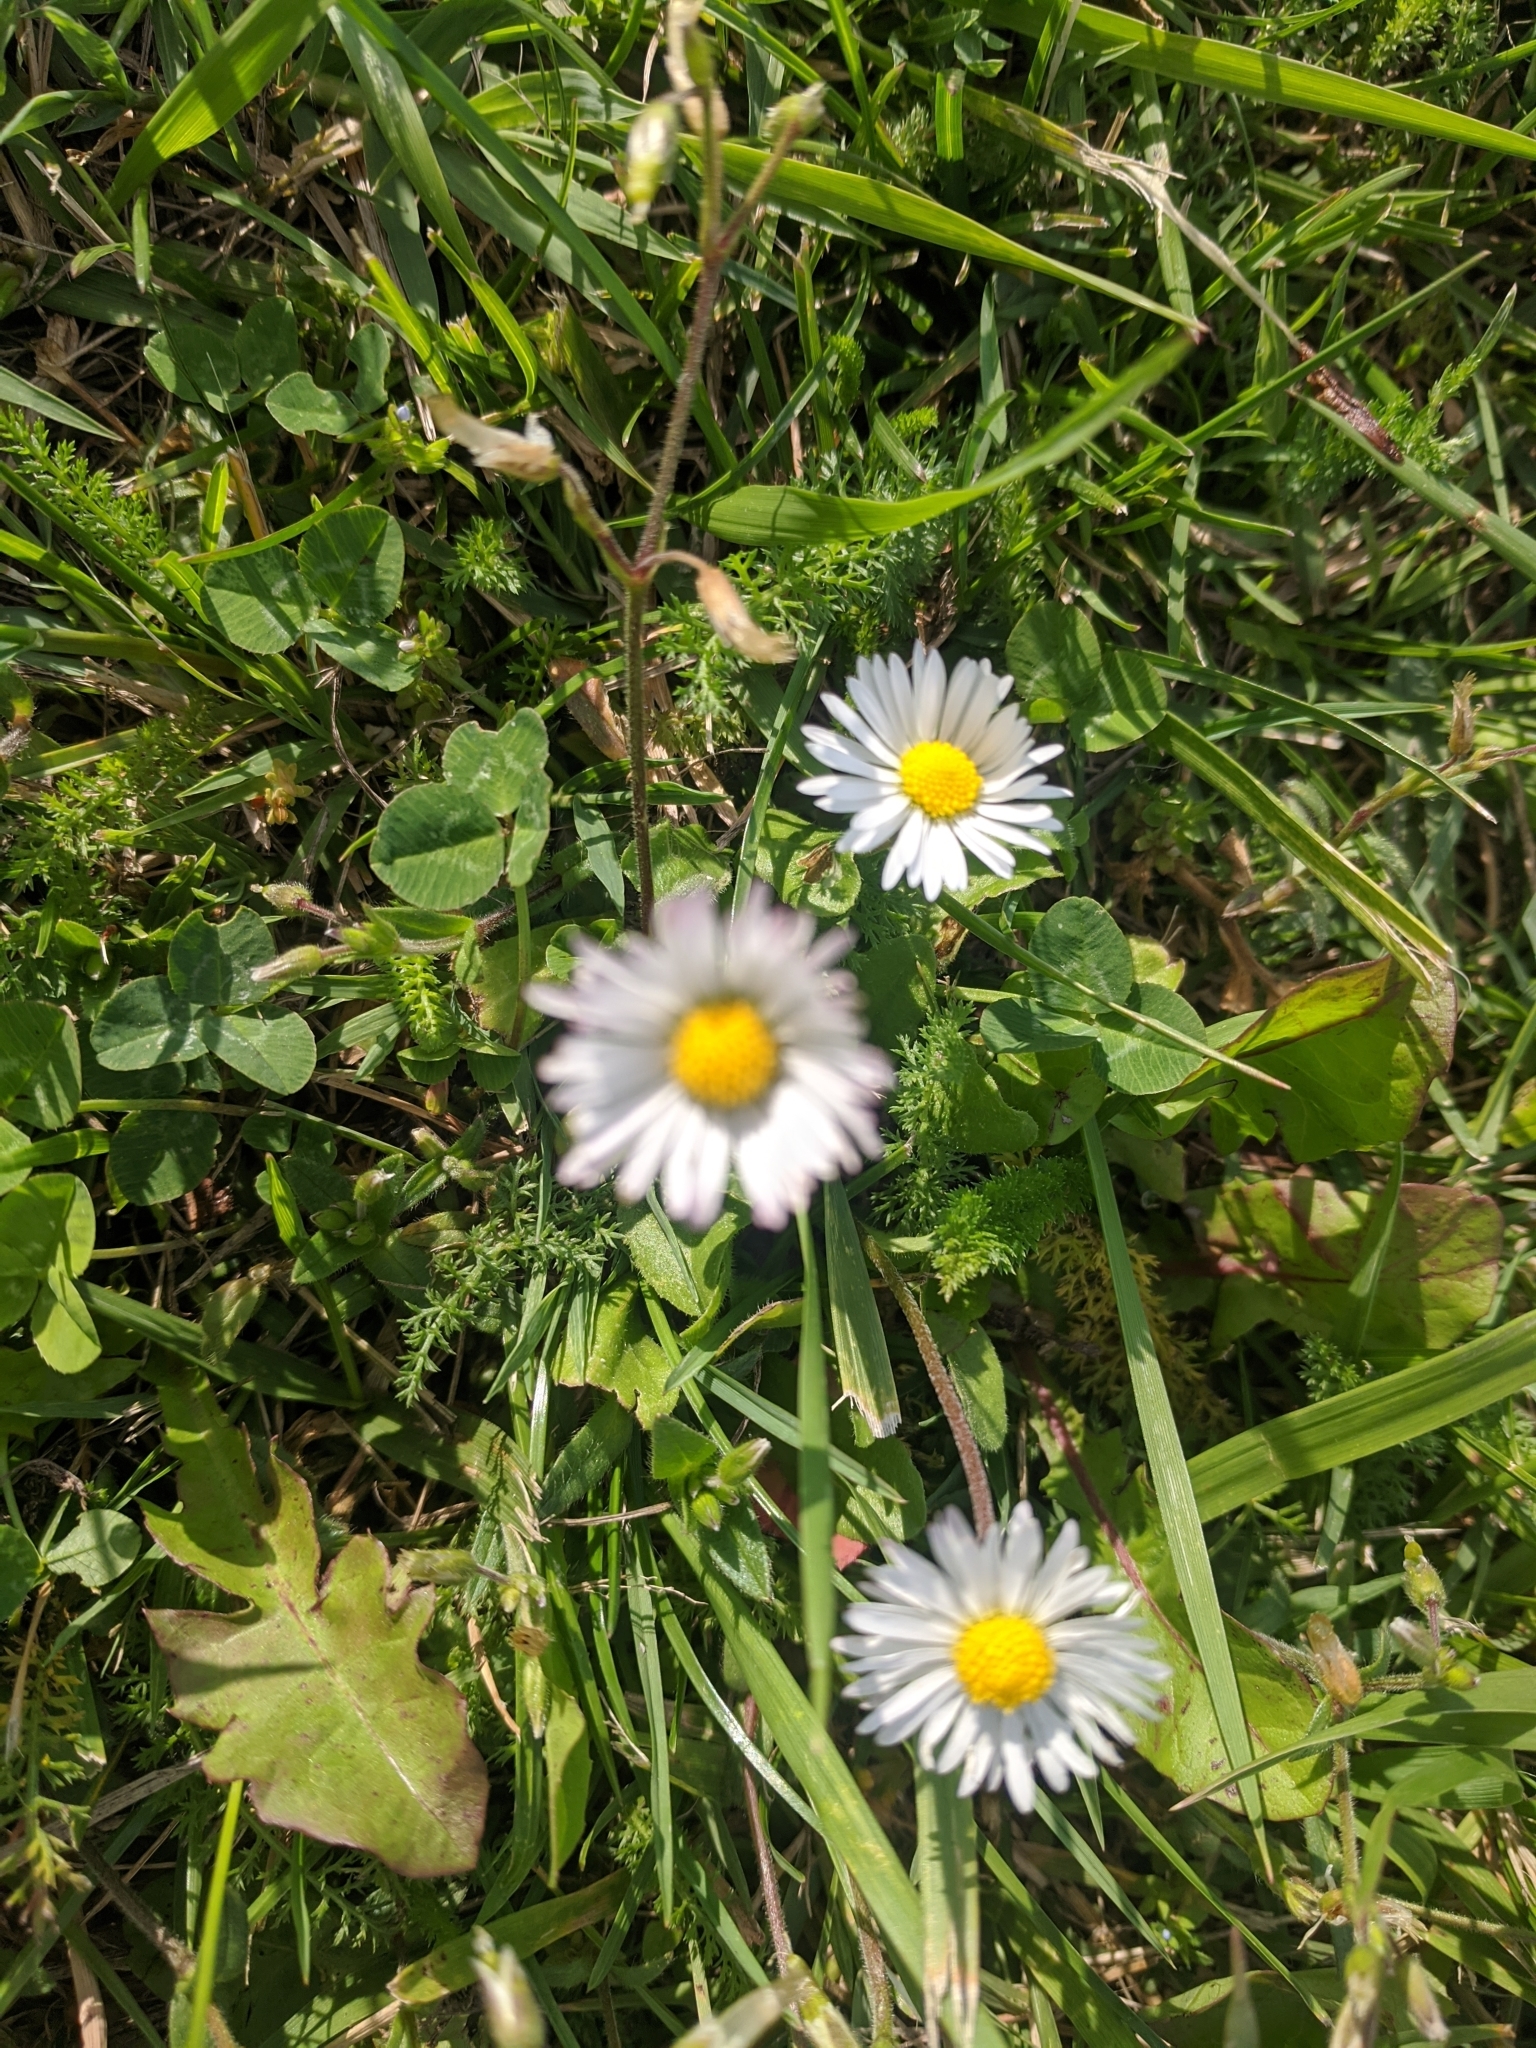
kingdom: Plantae
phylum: Tracheophyta
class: Magnoliopsida
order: Asterales
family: Asteraceae
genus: Bellis
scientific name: Bellis perennis
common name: Lawndaisy
